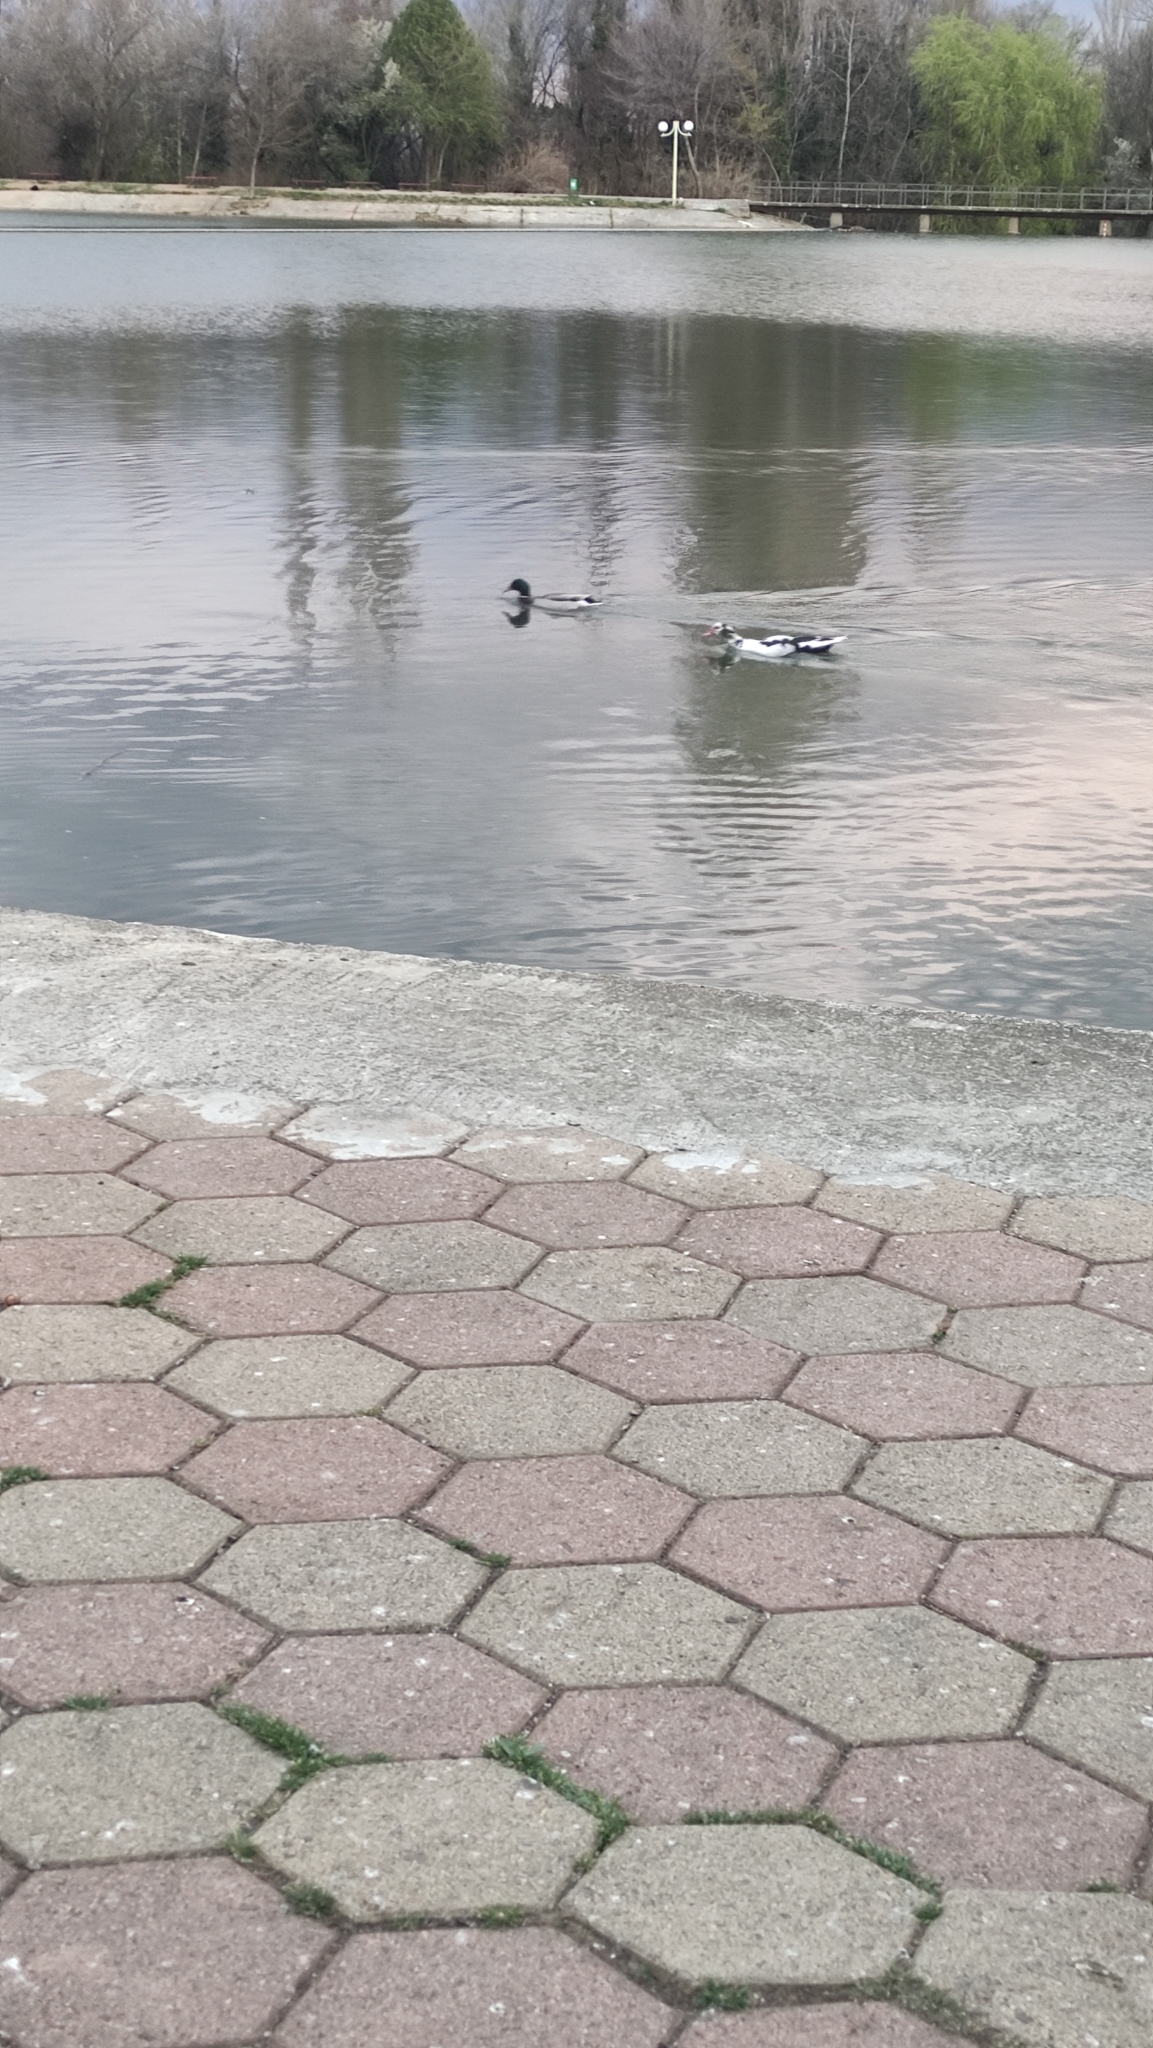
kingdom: Animalia
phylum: Chordata
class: Aves
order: Anseriformes
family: Anatidae
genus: Cairina
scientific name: Cairina moschata
